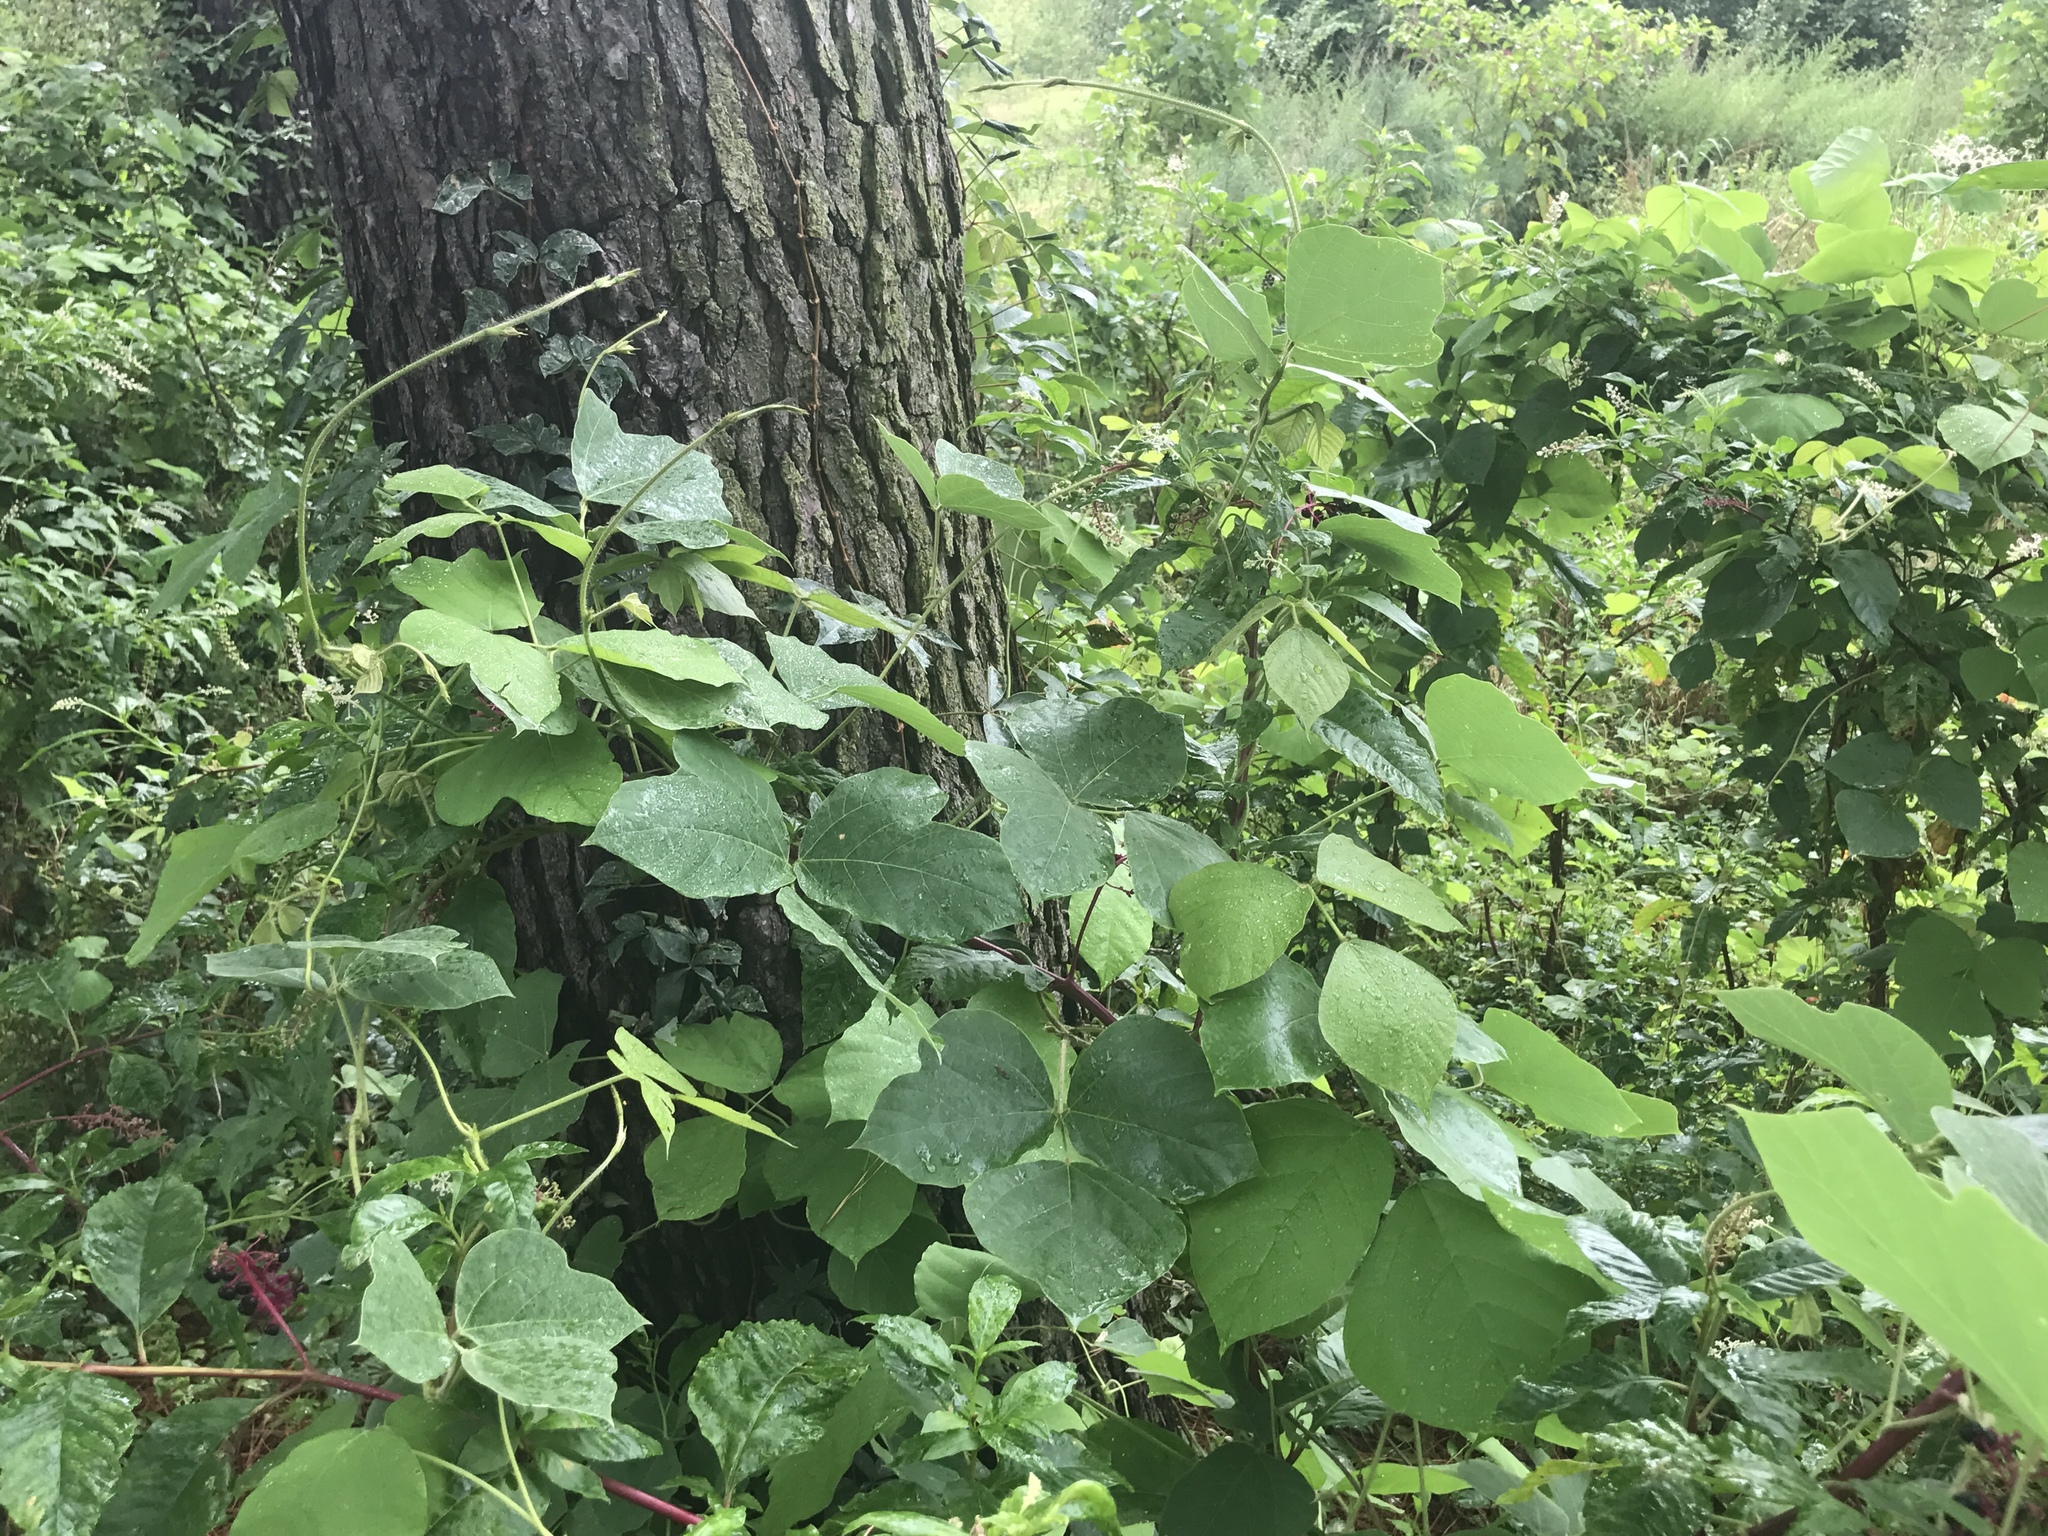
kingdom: Plantae
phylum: Tracheophyta
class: Magnoliopsida
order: Fabales
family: Fabaceae
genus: Pueraria
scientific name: Pueraria montana
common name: Kudzu
